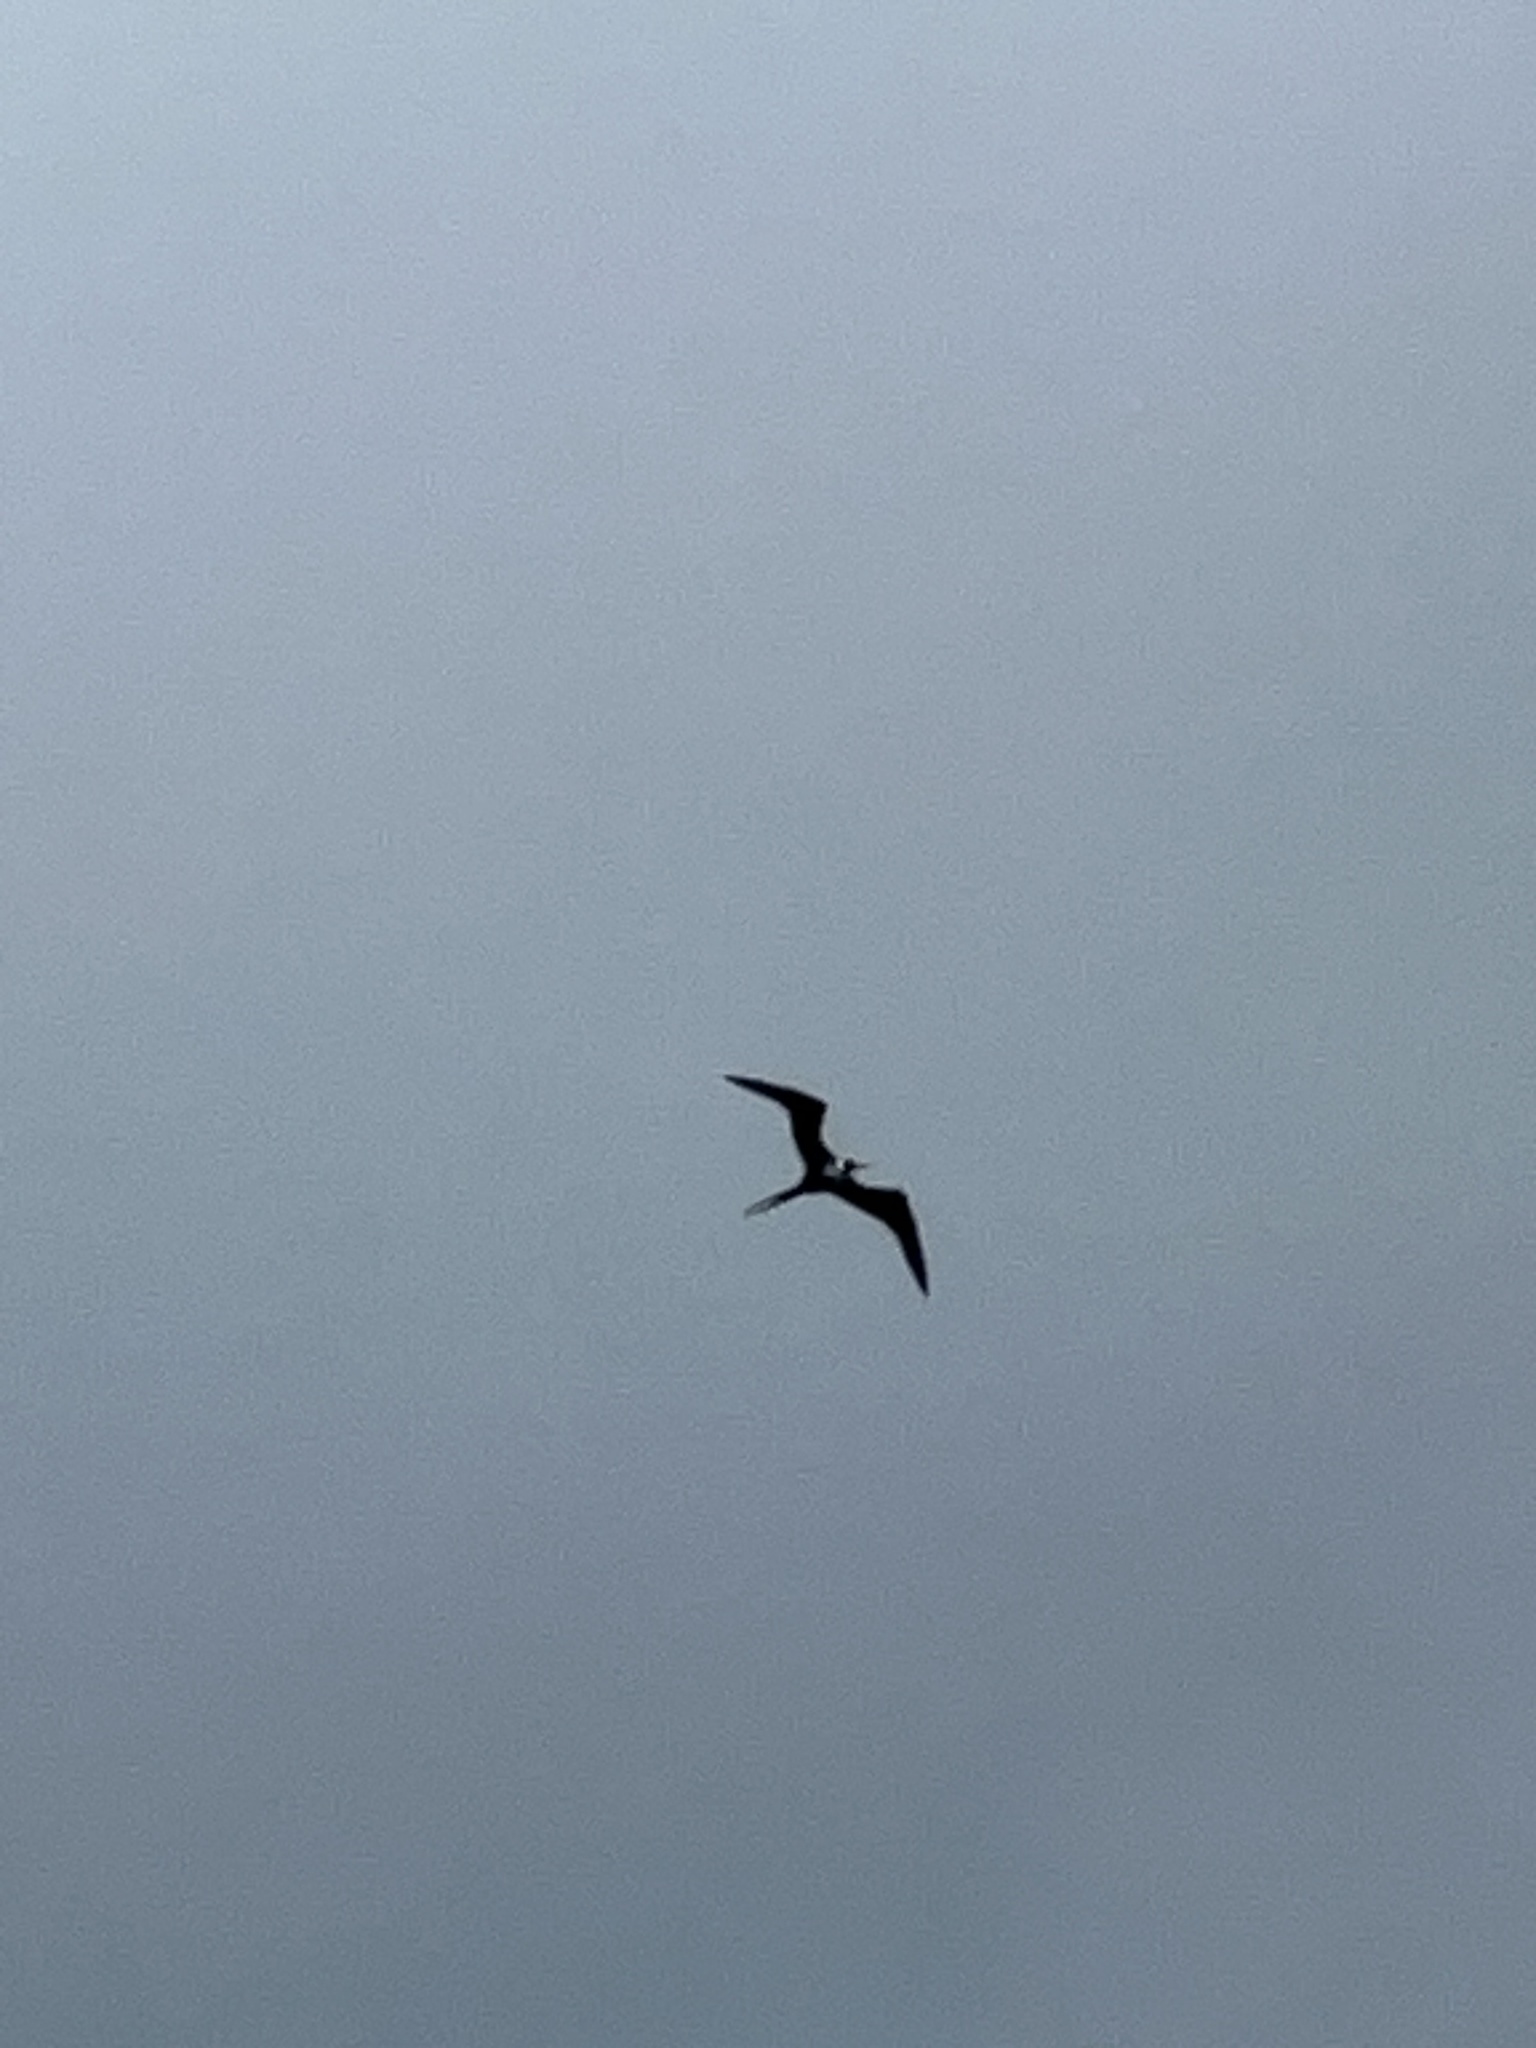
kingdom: Animalia
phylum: Chordata
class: Aves
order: Suliformes
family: Fregatidae
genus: Fregata
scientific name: Fregata magnificens
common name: Magnificent frigatebird
